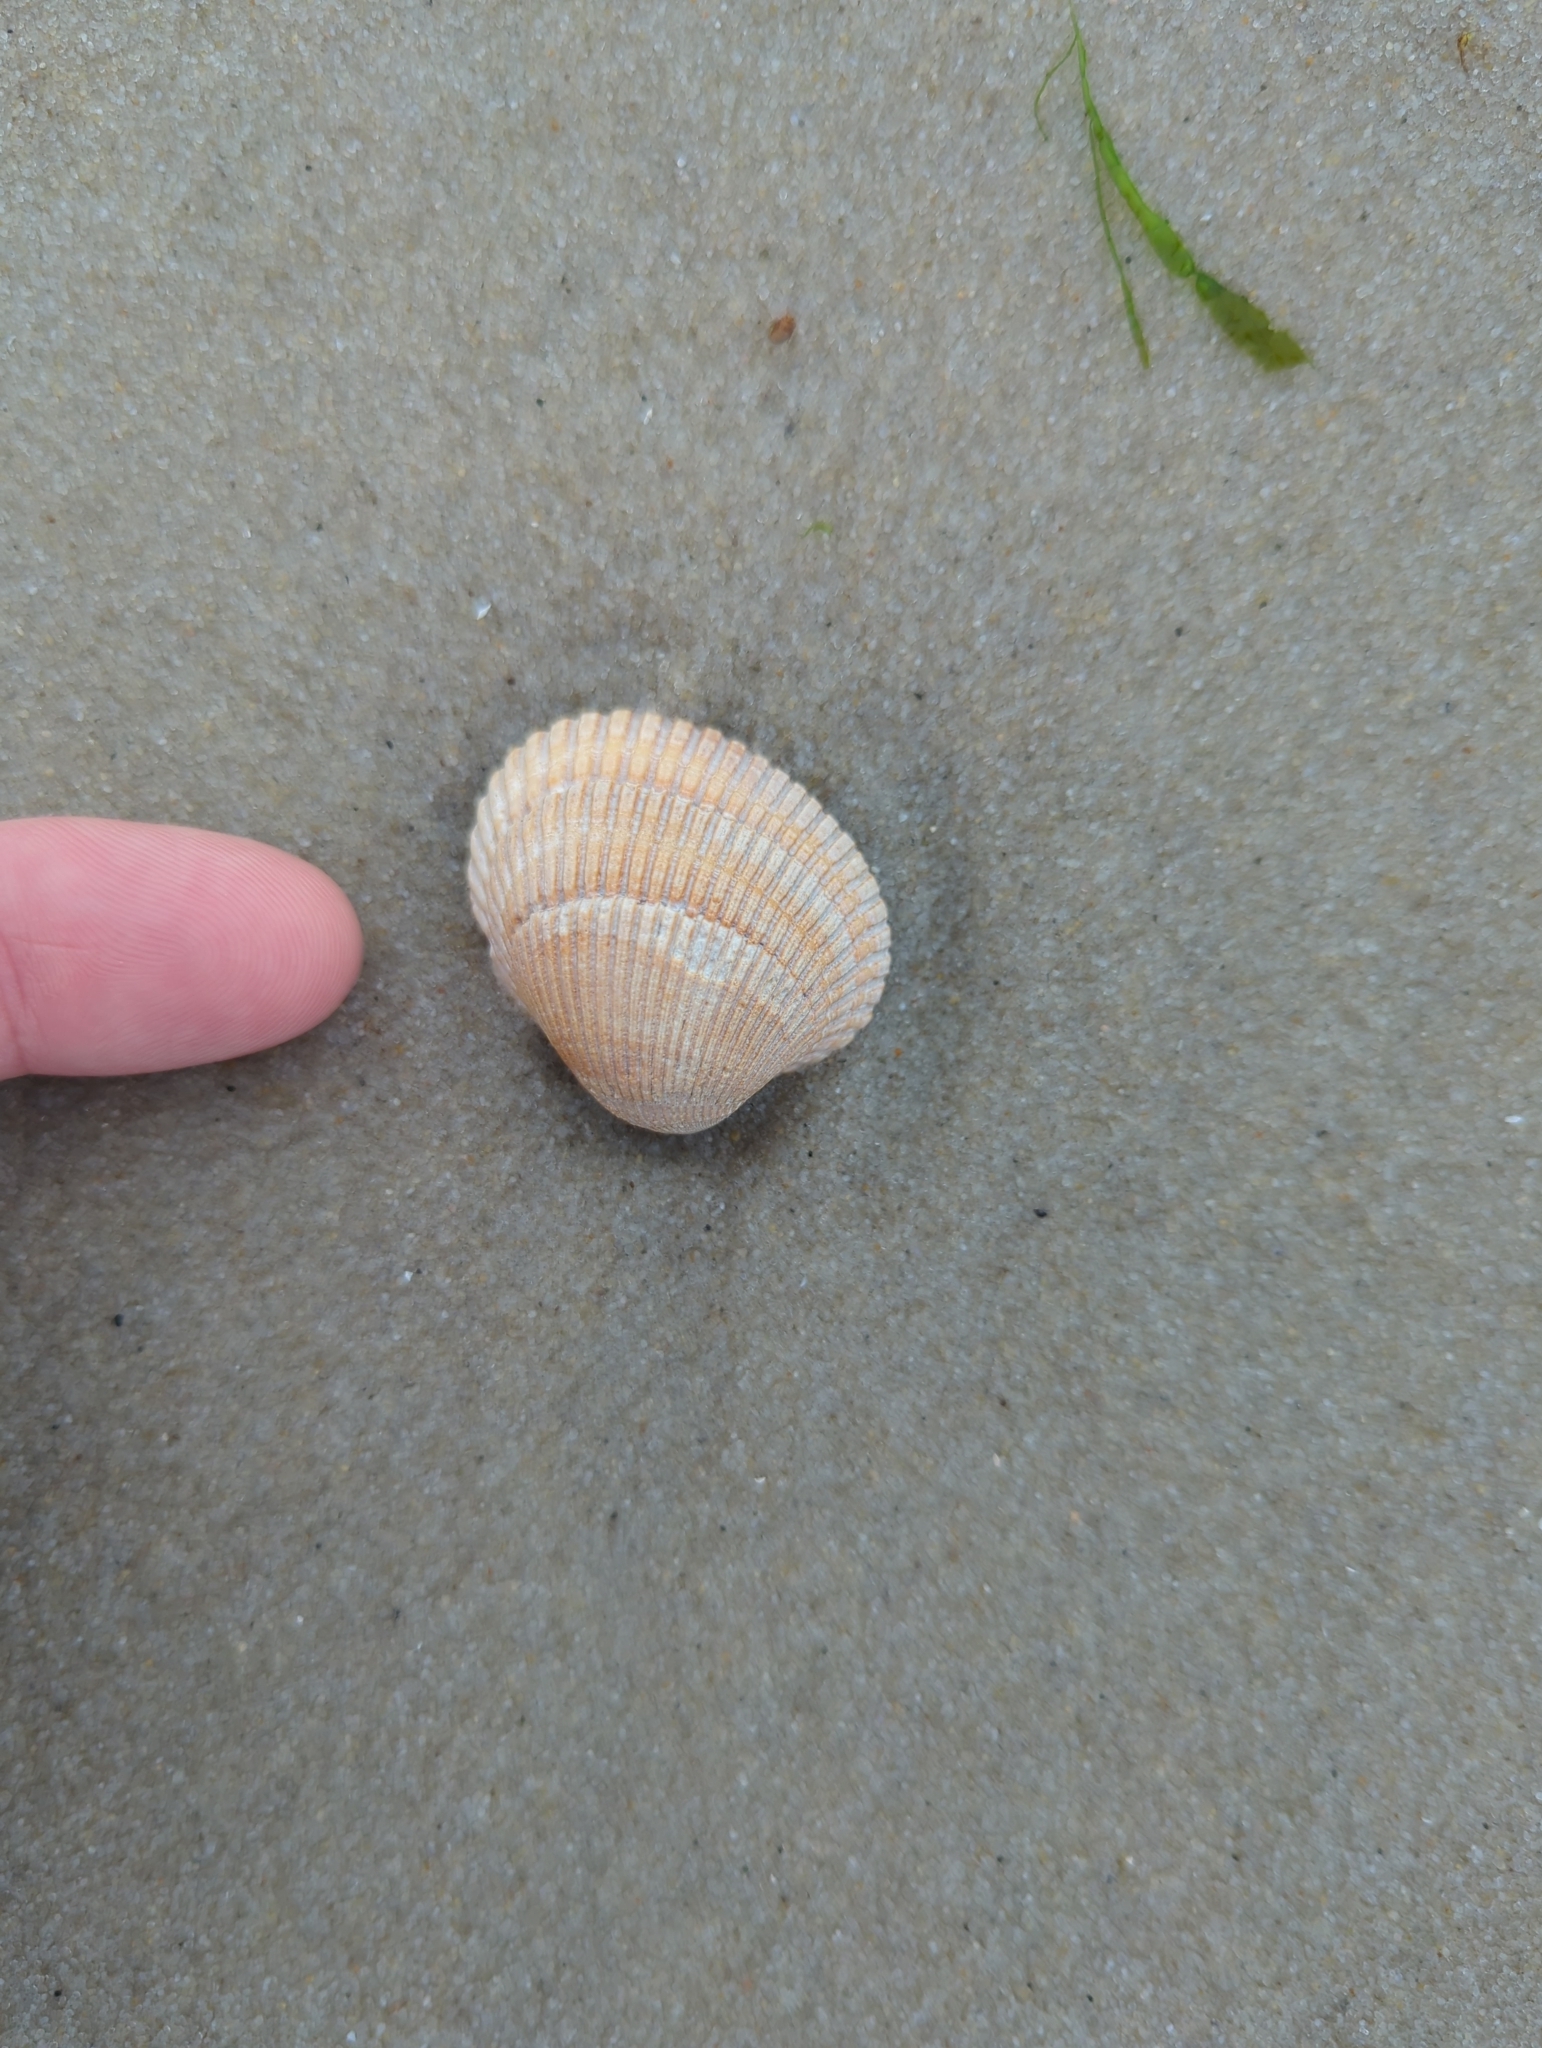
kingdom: Animalia
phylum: Mollusca
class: Bivalvia
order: Arcida
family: Arcidae
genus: Lunarca
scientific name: Lunarca ovalis
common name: Blood ark
